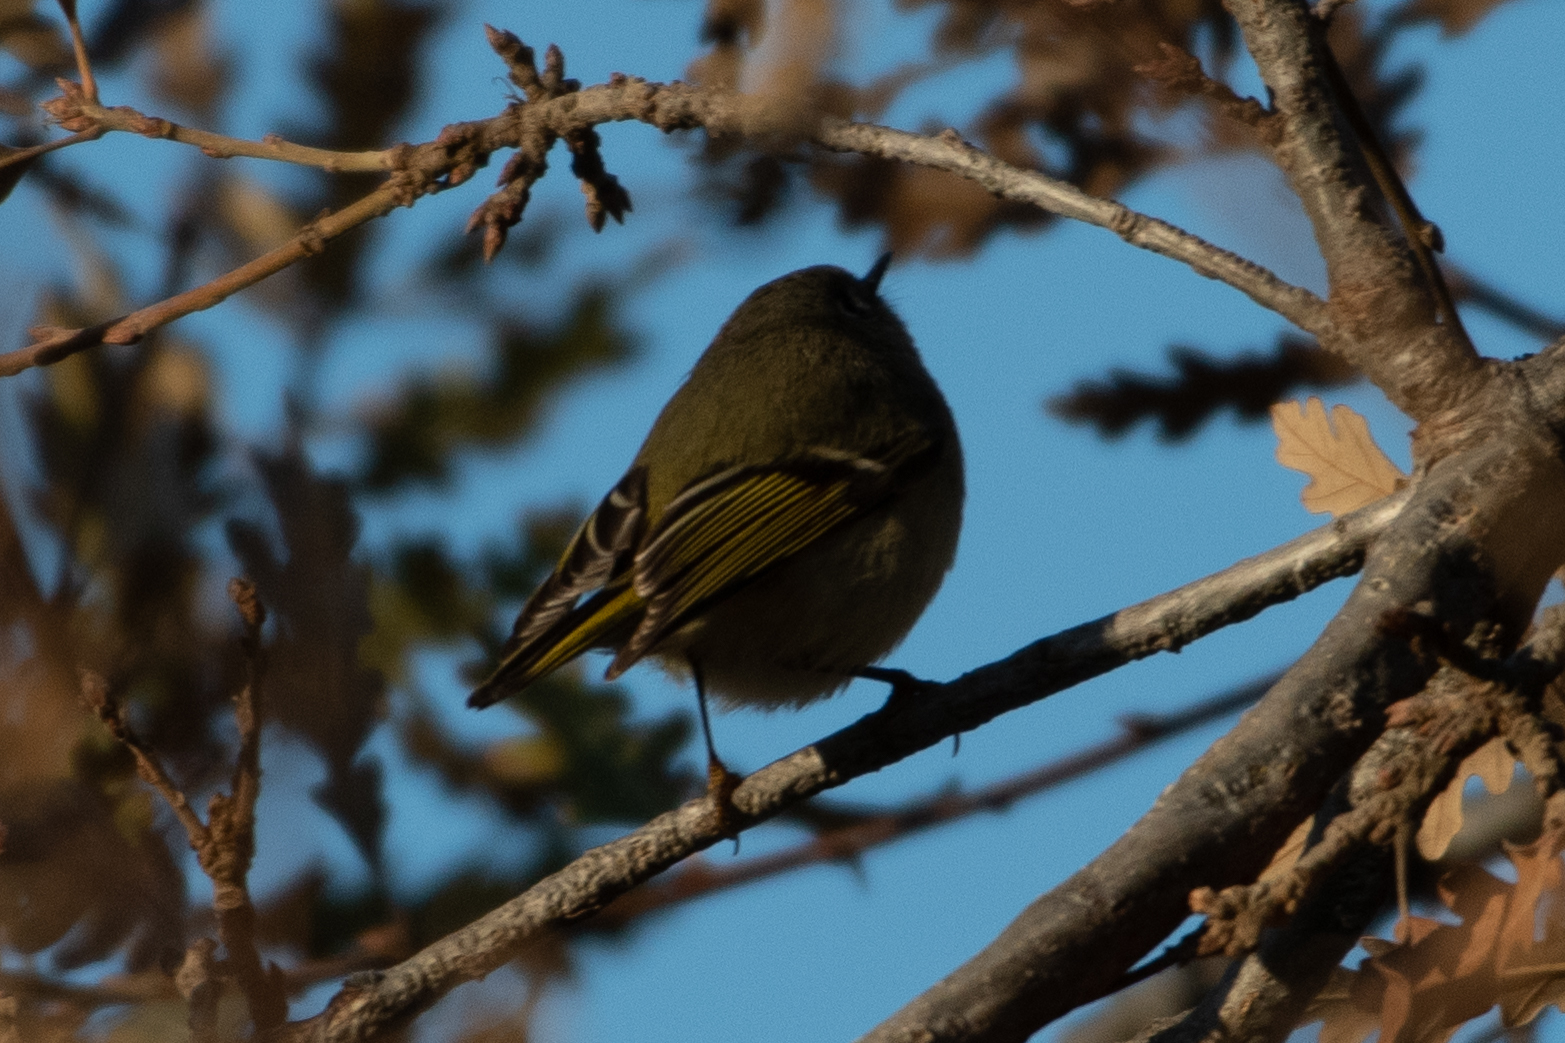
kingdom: Animalia
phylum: Chordata
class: Aves
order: Passeriformes
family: Regulidae
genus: Regulus
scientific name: Regulus calendula
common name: Ruby-crowned kinglet
